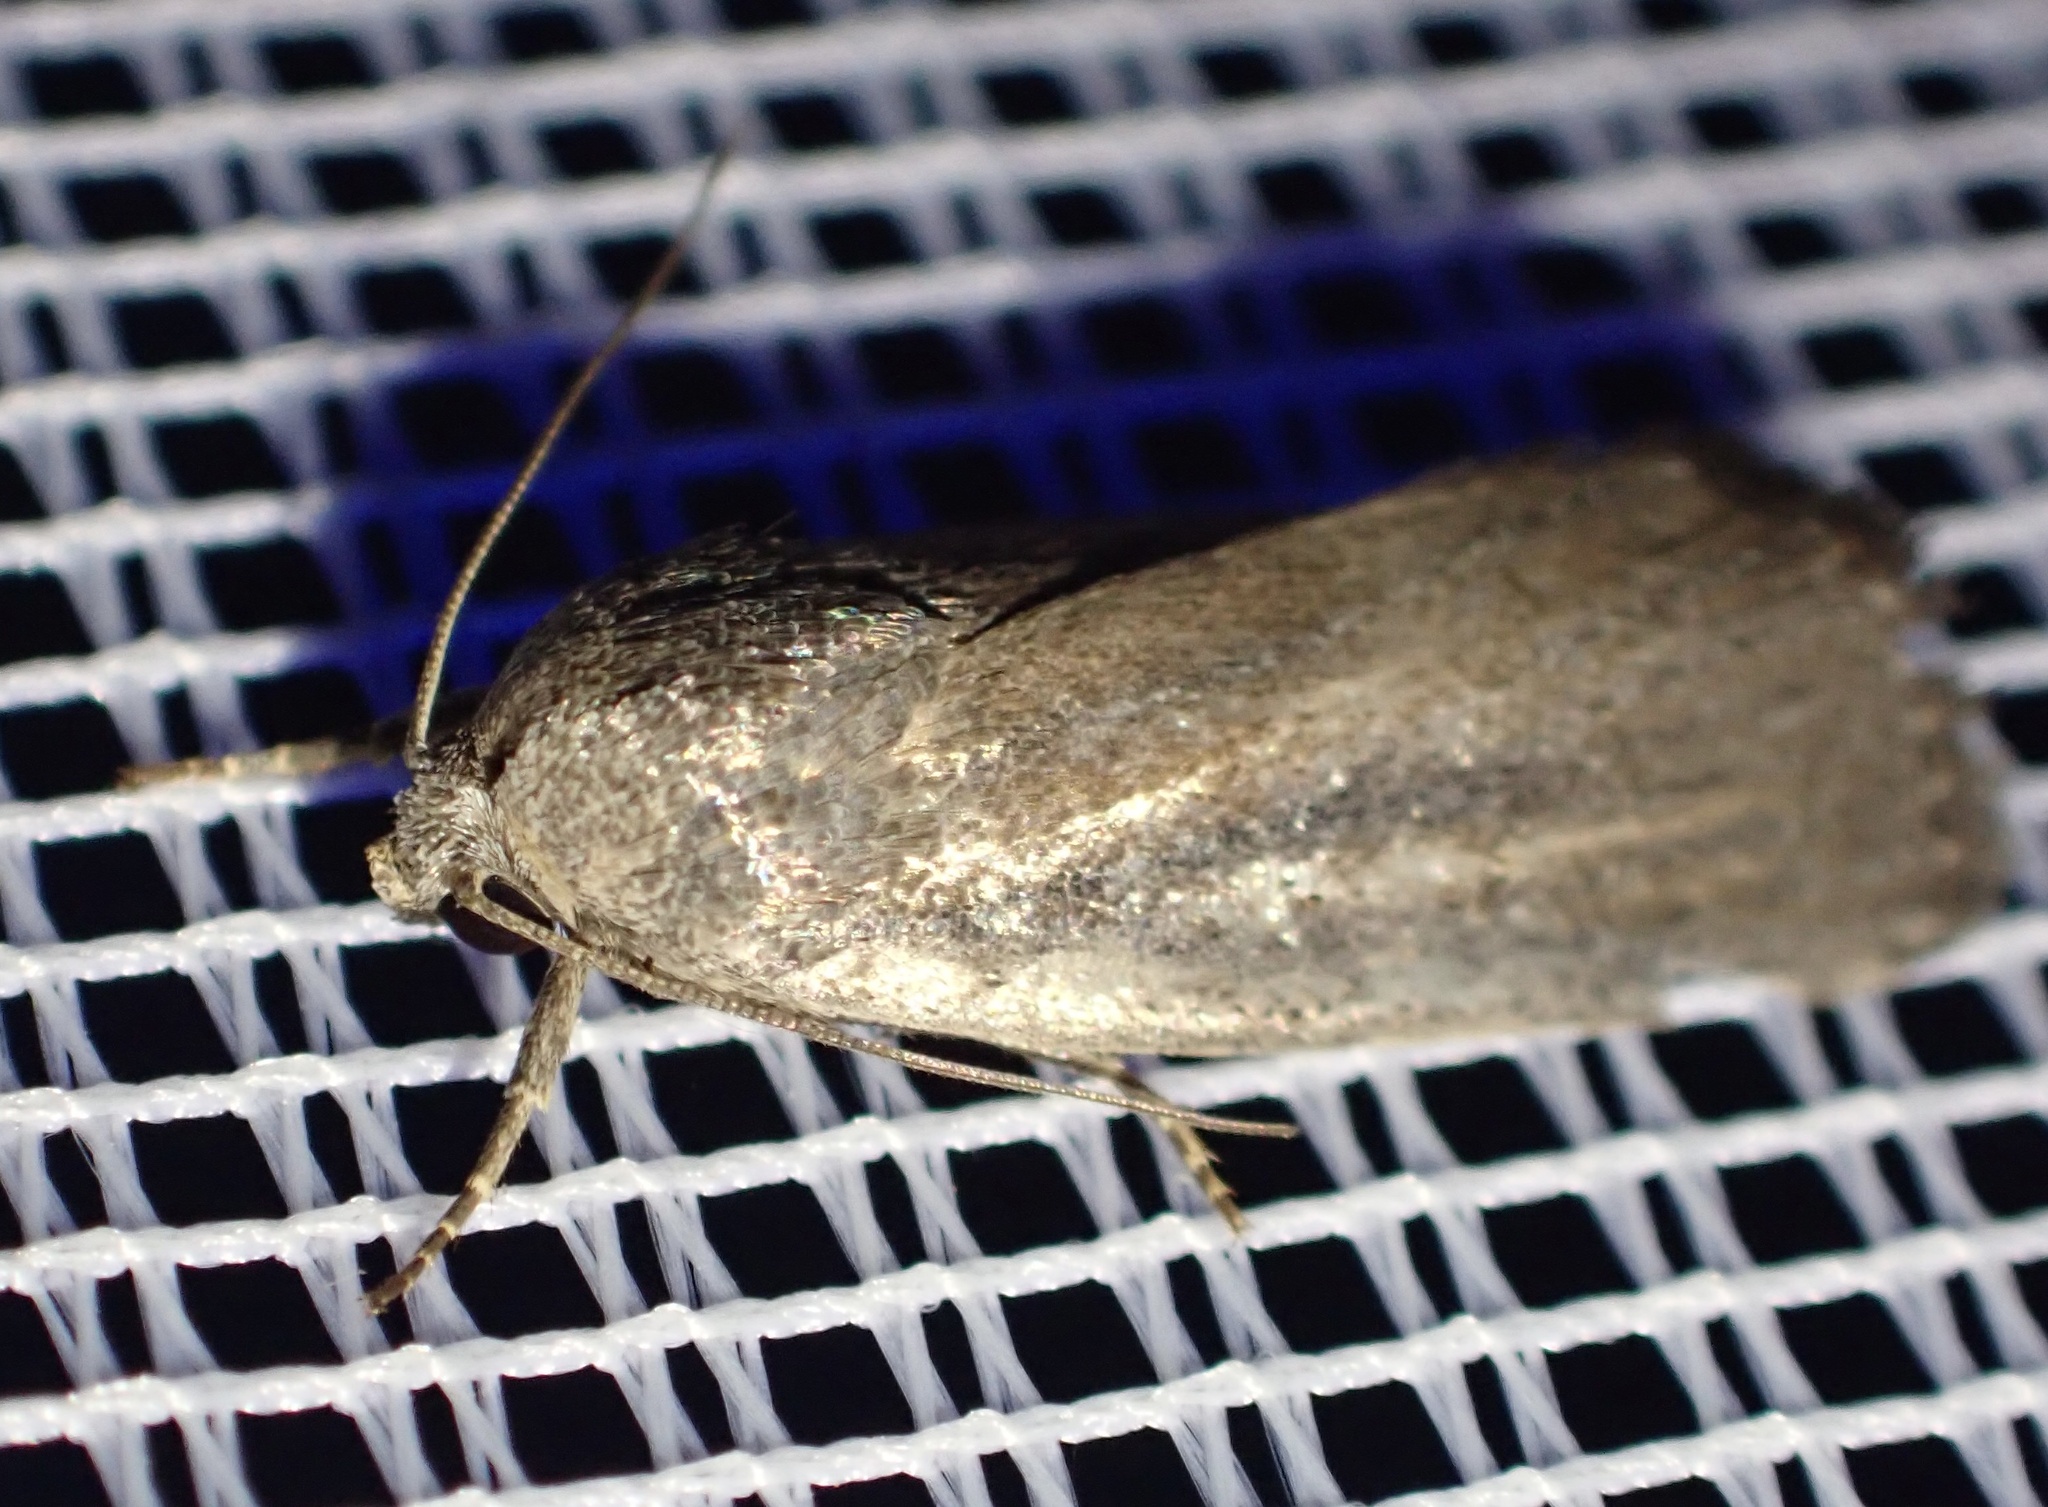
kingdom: Animalia
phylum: Arthropoda
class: Insecta
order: Lepidoptera
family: Noctuidae
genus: Athetis
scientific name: Athetis hospes
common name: Porter's rustic
